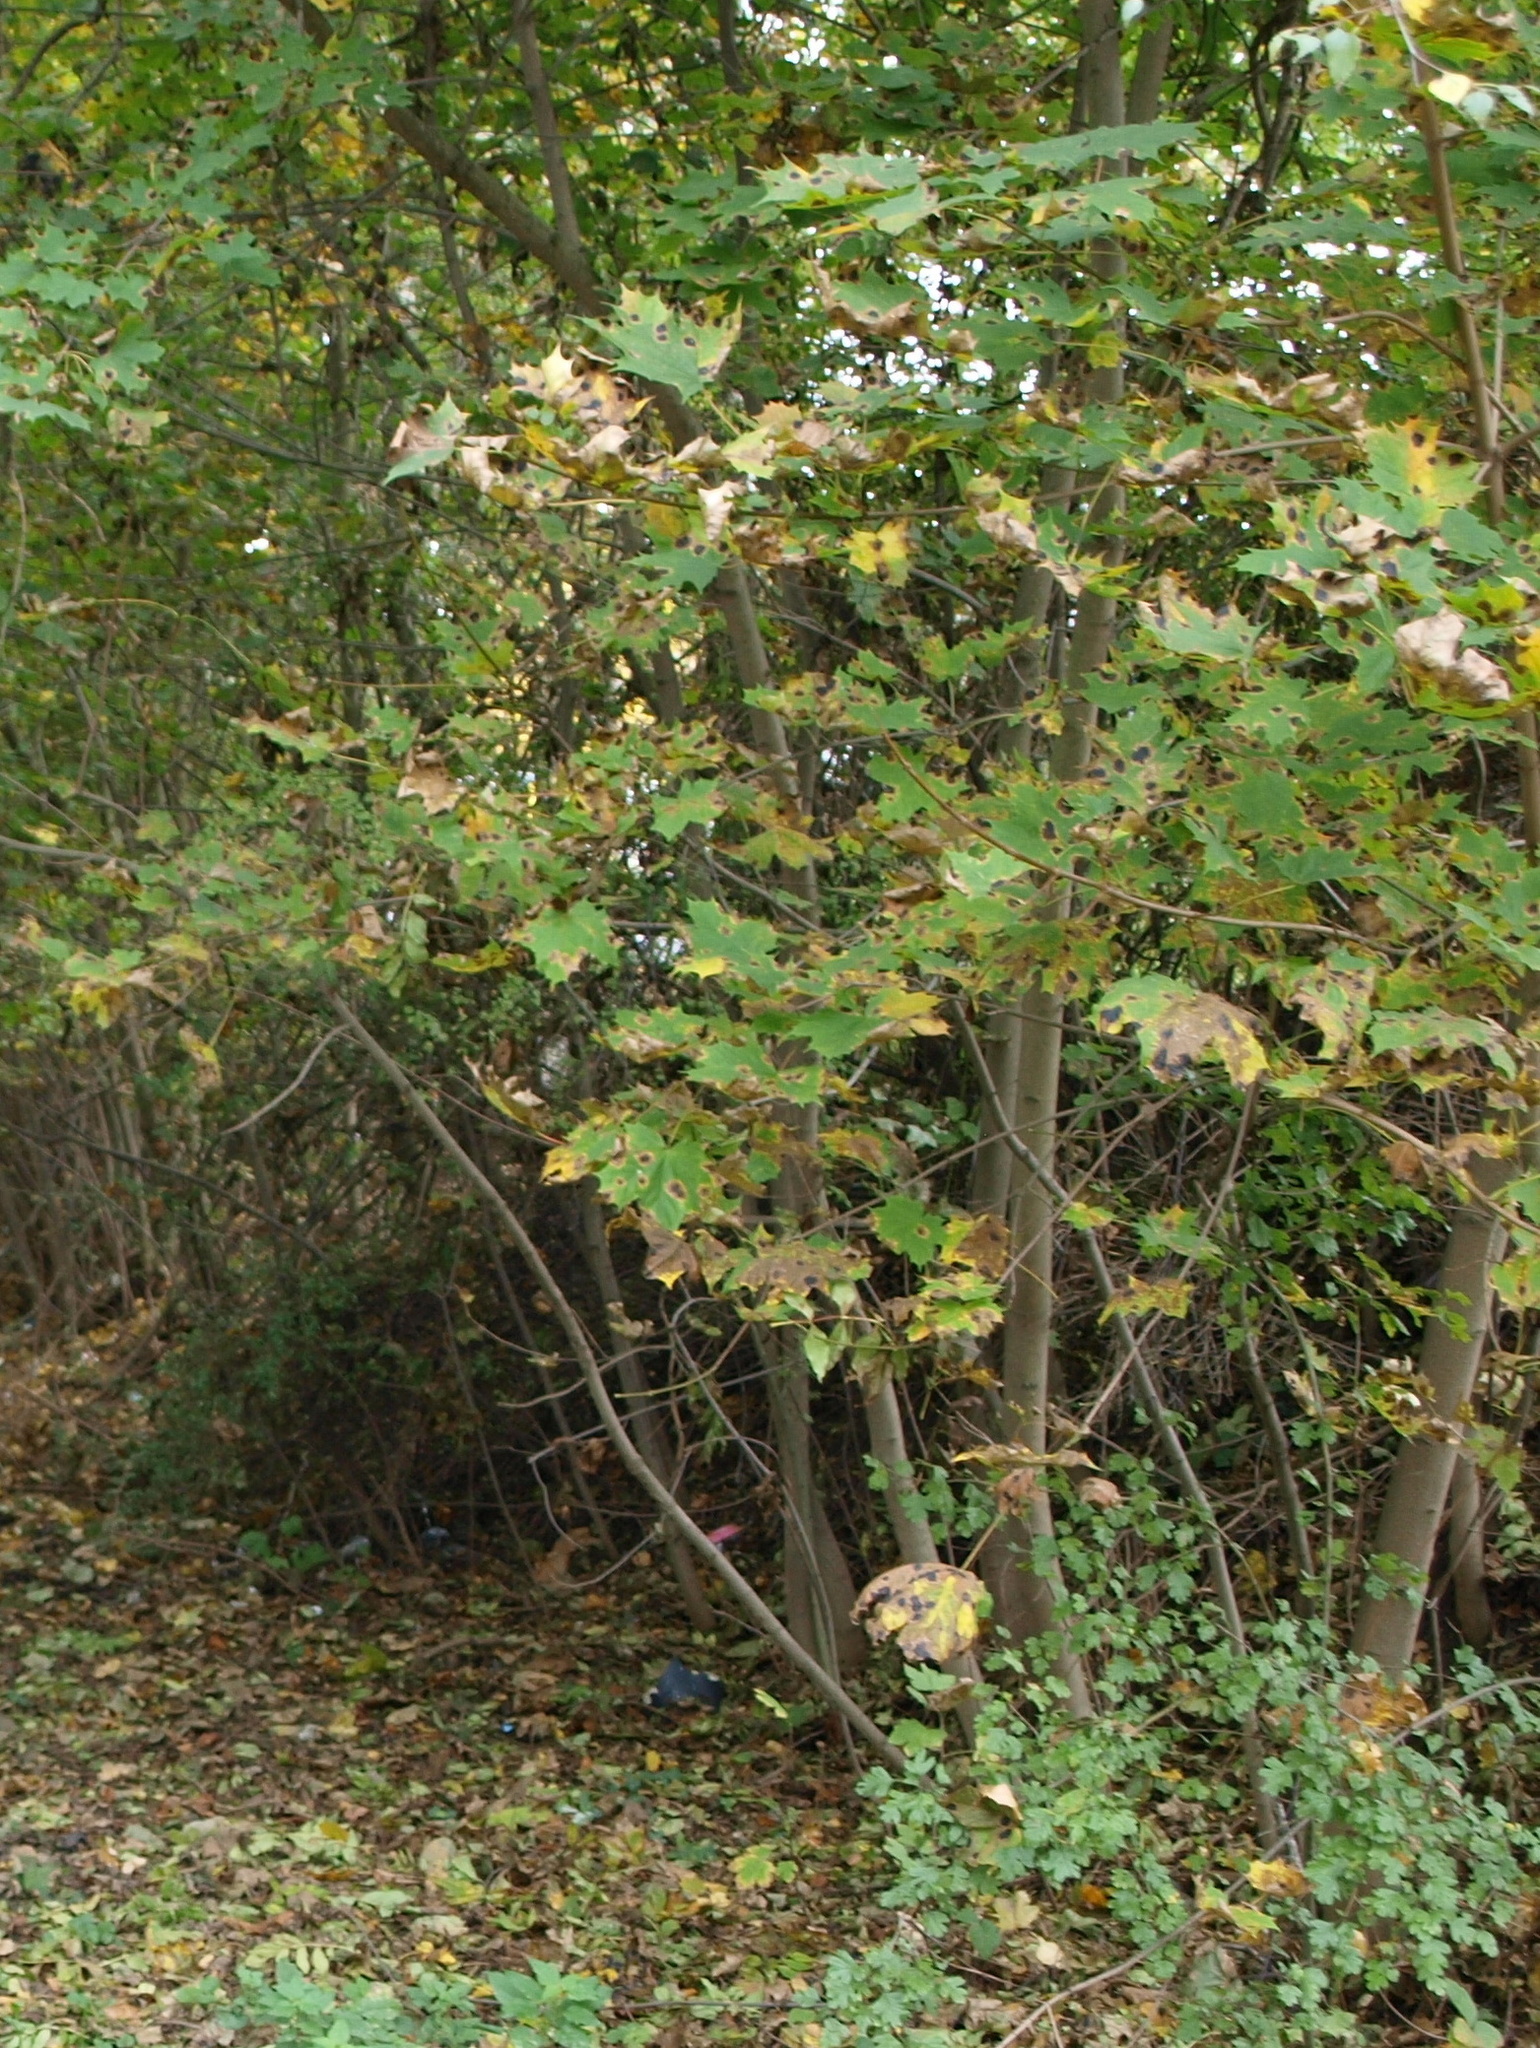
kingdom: Plantae
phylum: Tracheophyta
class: Magnoliopsida
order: Sapindales
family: Sapindaceae
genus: Acer
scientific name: Acer platanoides
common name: Norway maple
